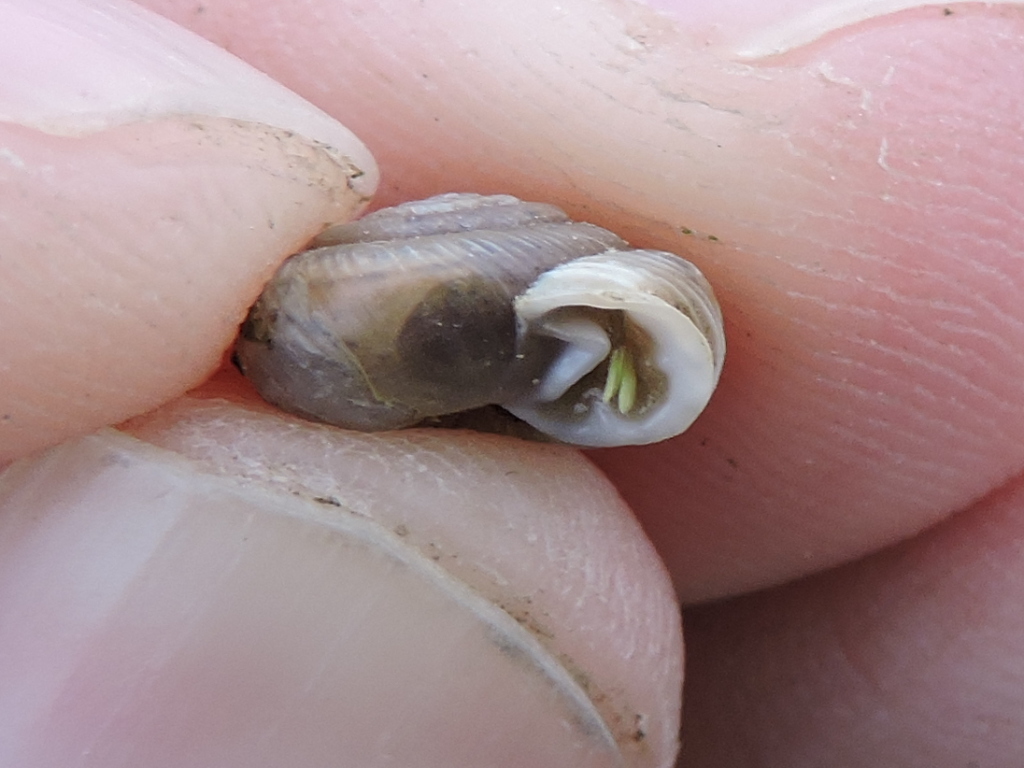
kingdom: Animalia
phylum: Mollusca
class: Gastropoda
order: Stylommatophora
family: Polygyridae
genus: Linisa
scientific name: Linisa texasiana
